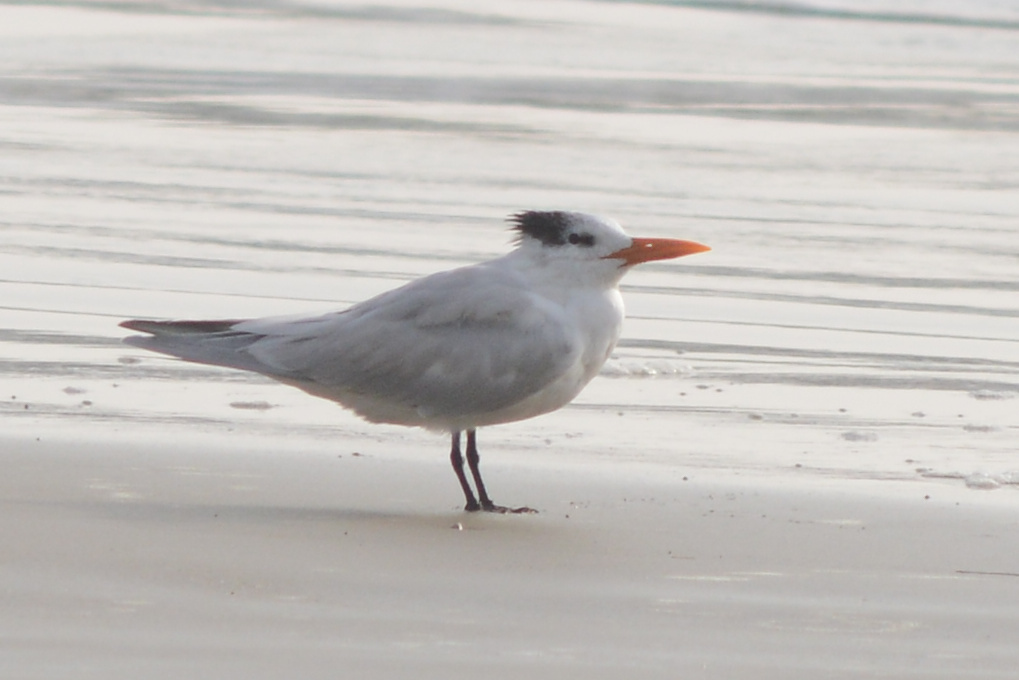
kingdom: Animalia
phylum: Chordata
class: Aves
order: Charadriiformes
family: Laridae
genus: Thalasseus
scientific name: Thalasseus maximus
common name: Royal tern
